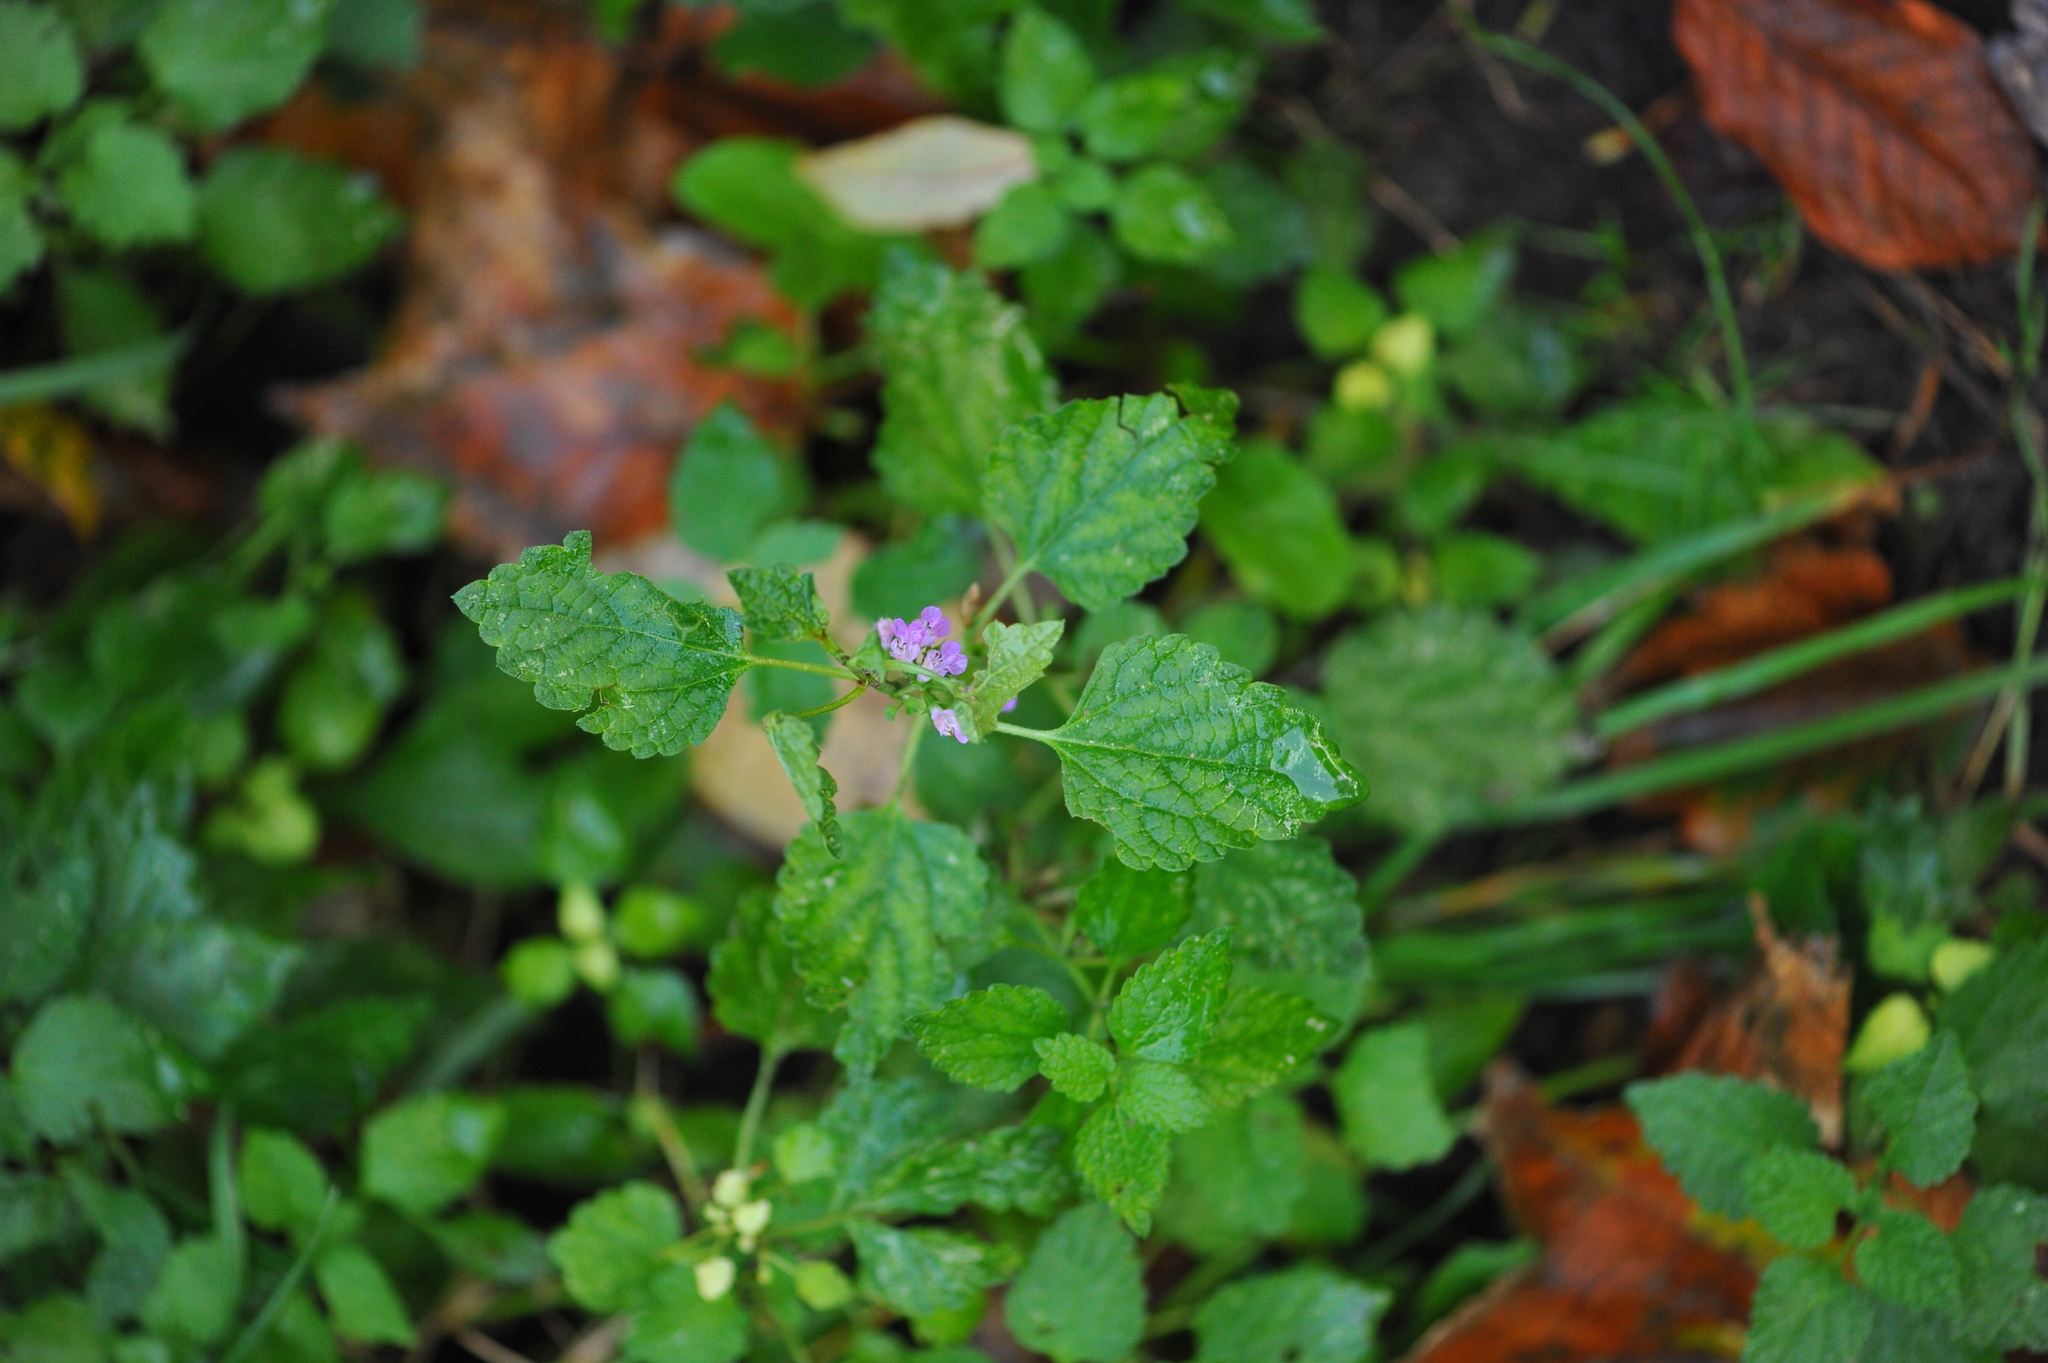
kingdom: Plantae
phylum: Tracheophyta
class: Magnoliopsida
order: Lamiales
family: Lamiaceae
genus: Ballota
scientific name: Ballota nigra
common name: Black horehound
